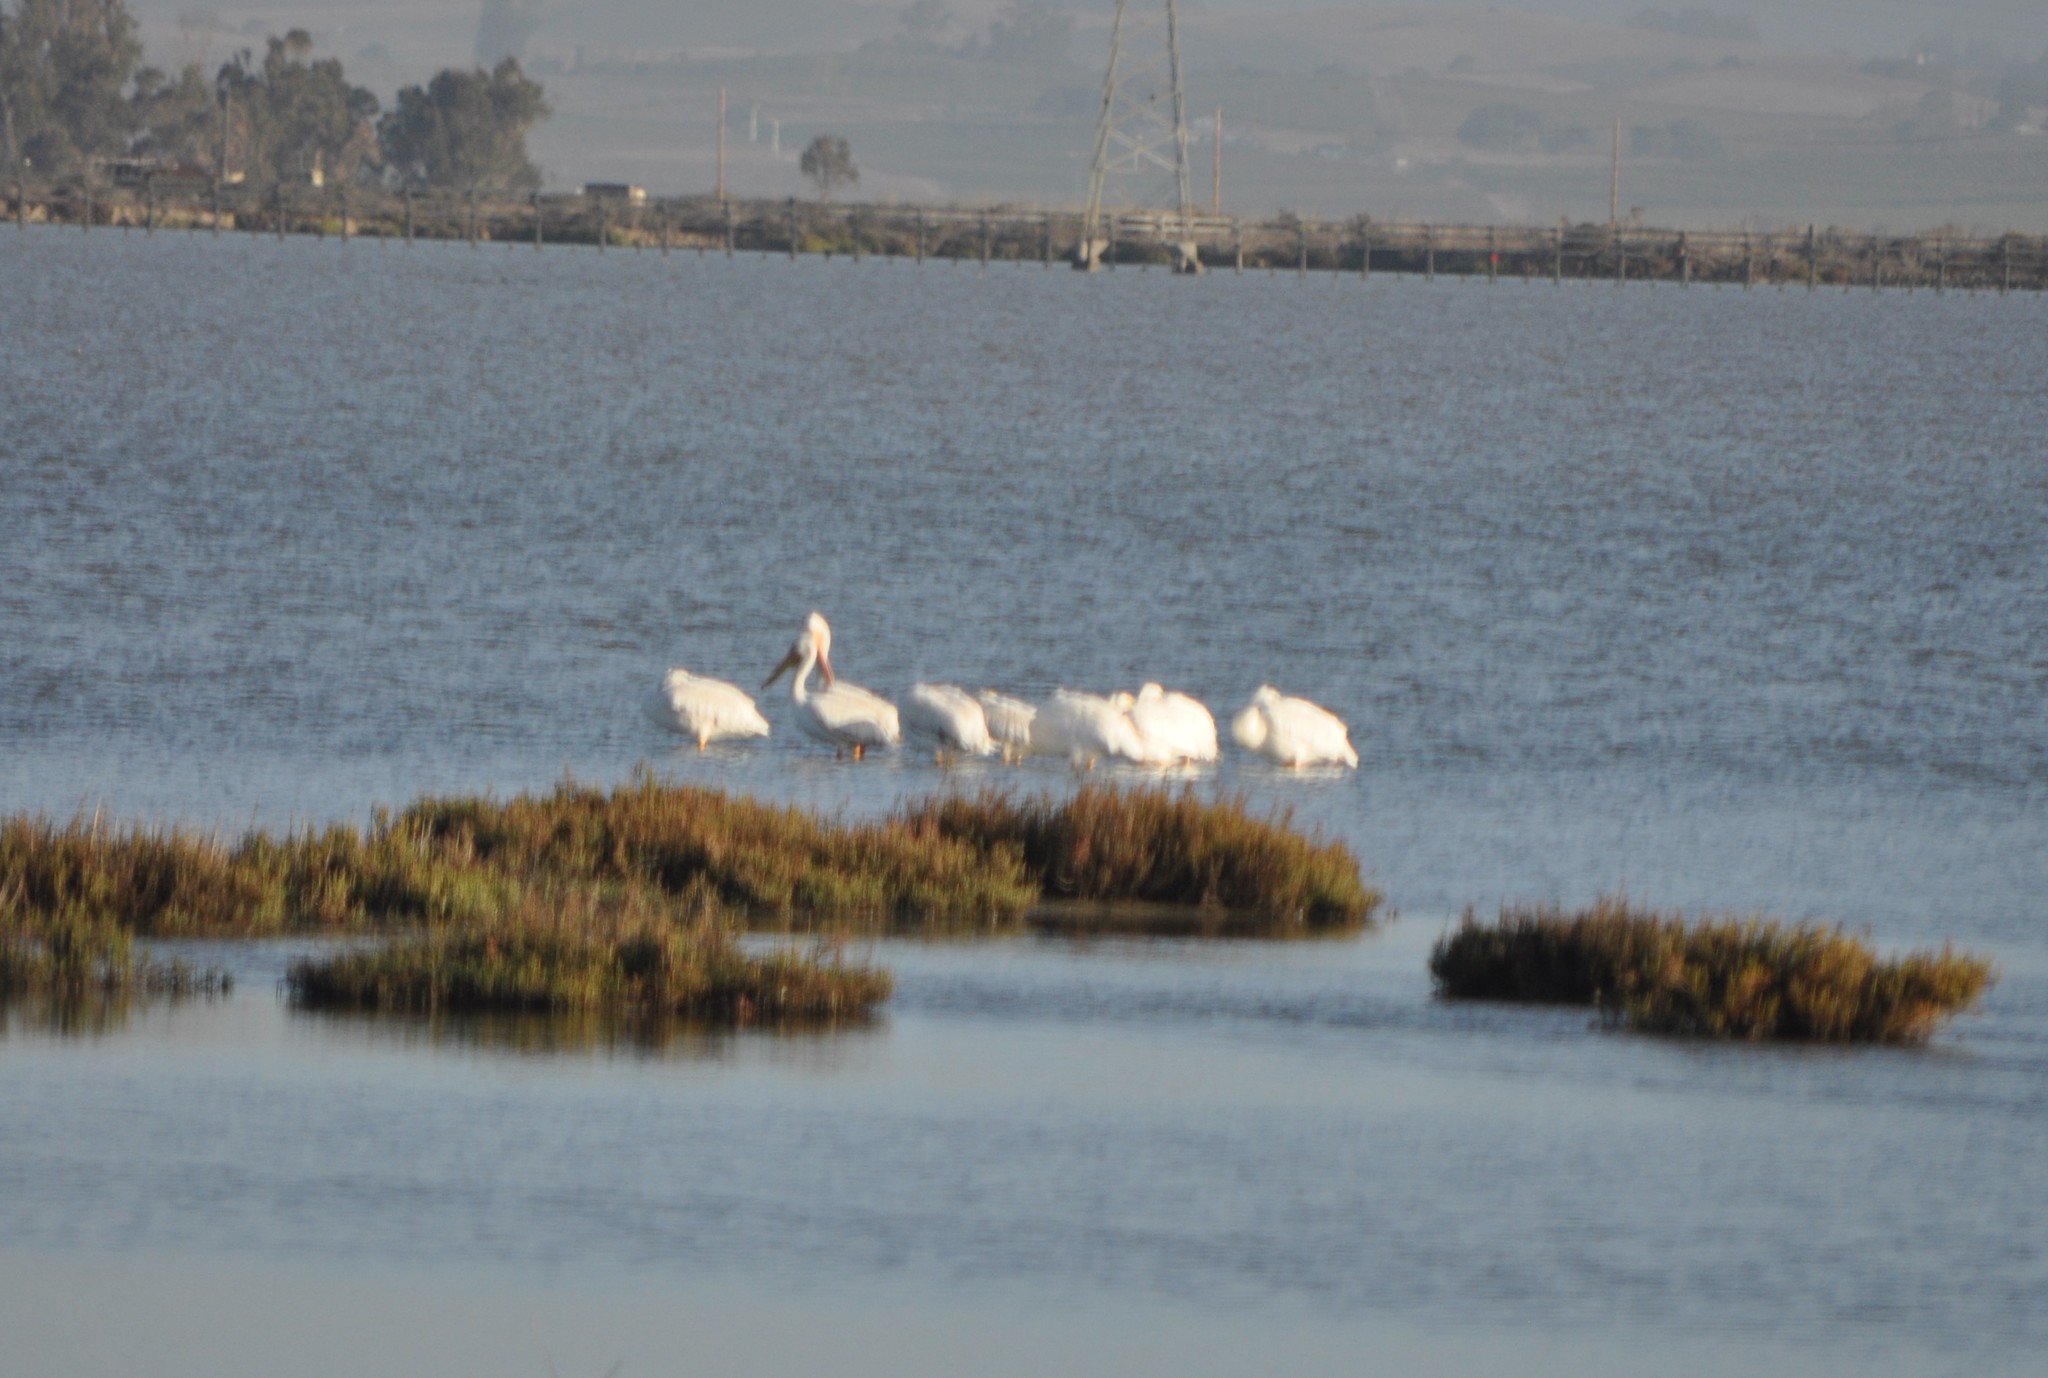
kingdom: Animalia
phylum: Chordata
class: Aves
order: Pelecaniformes
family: Pelecanidae
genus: Pelecanus
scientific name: Pelecanus erythrorhynchos
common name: American white pelican
